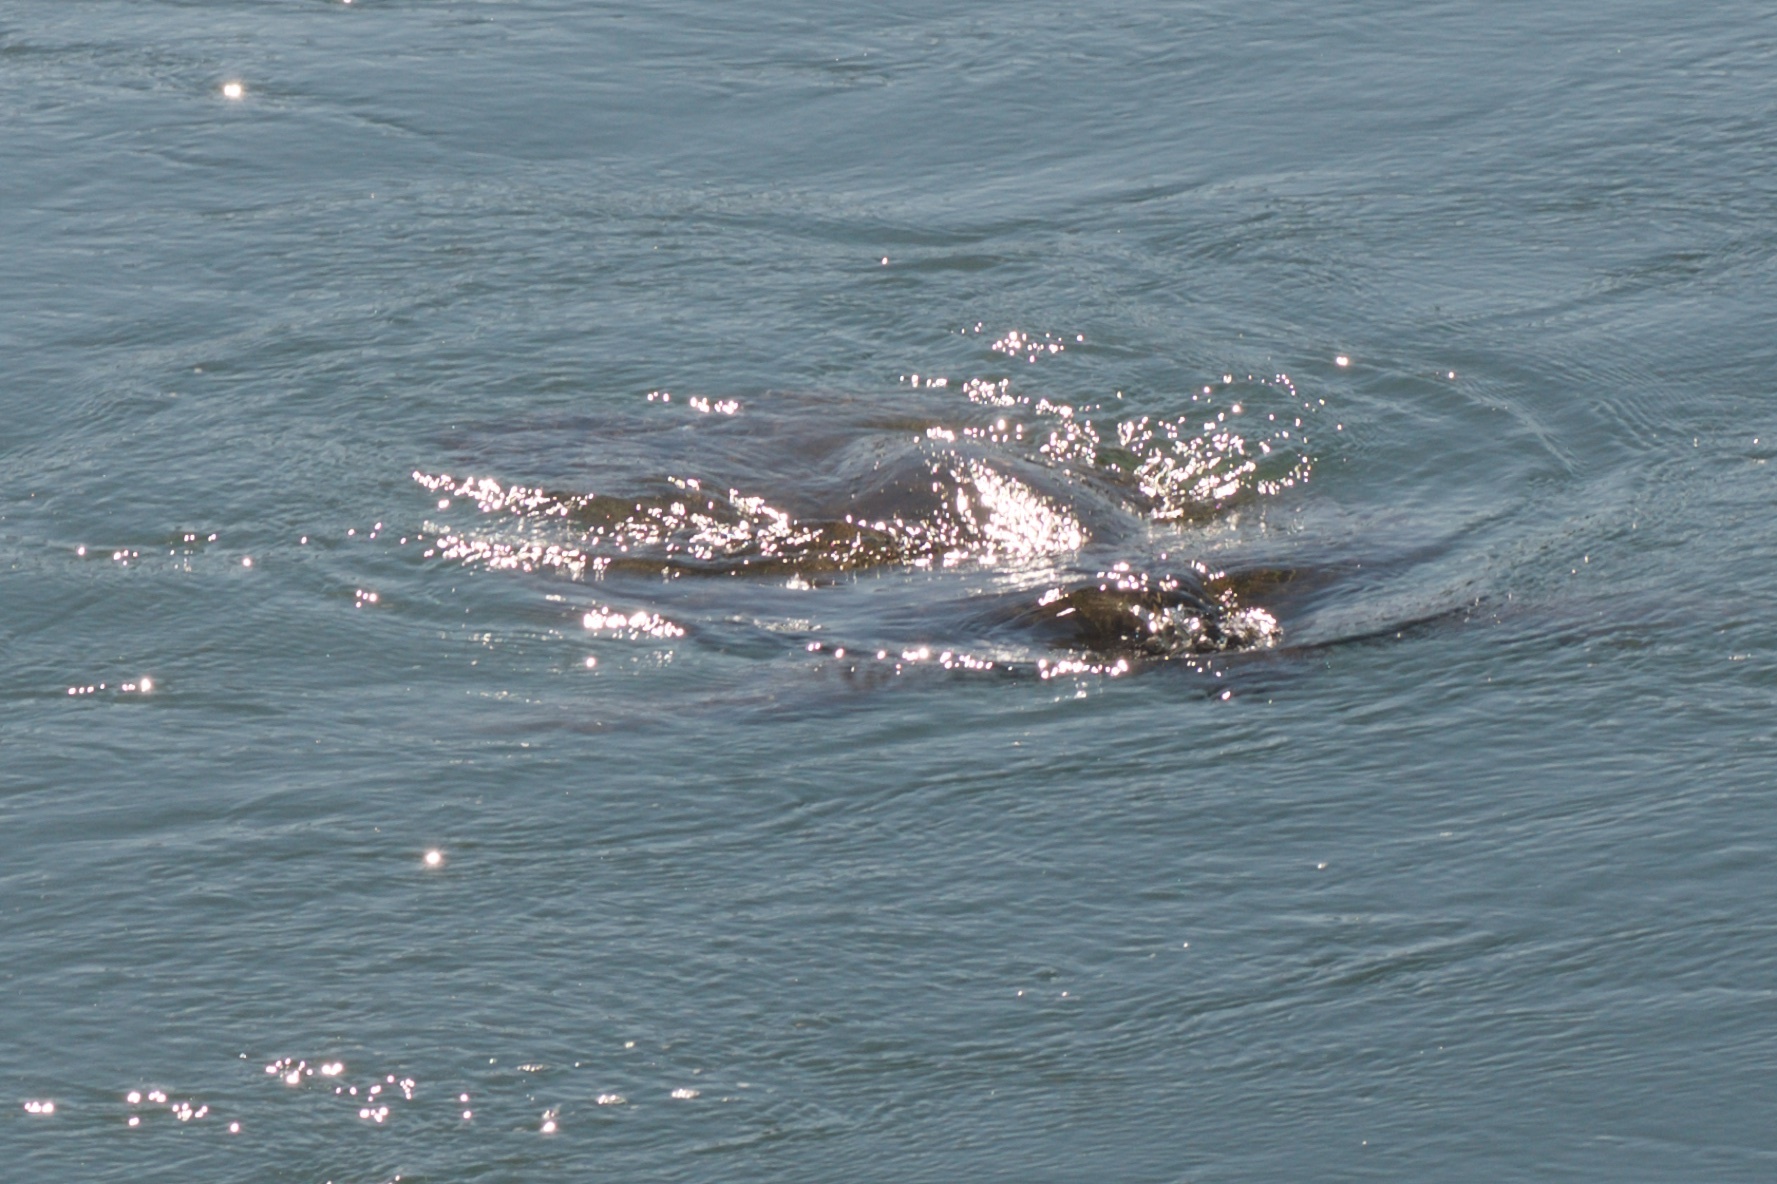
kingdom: Animalia
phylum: Chordata
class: Testudines
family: Cheloniidae
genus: Chelonia
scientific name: Chelonia mydas
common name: Green turtle
